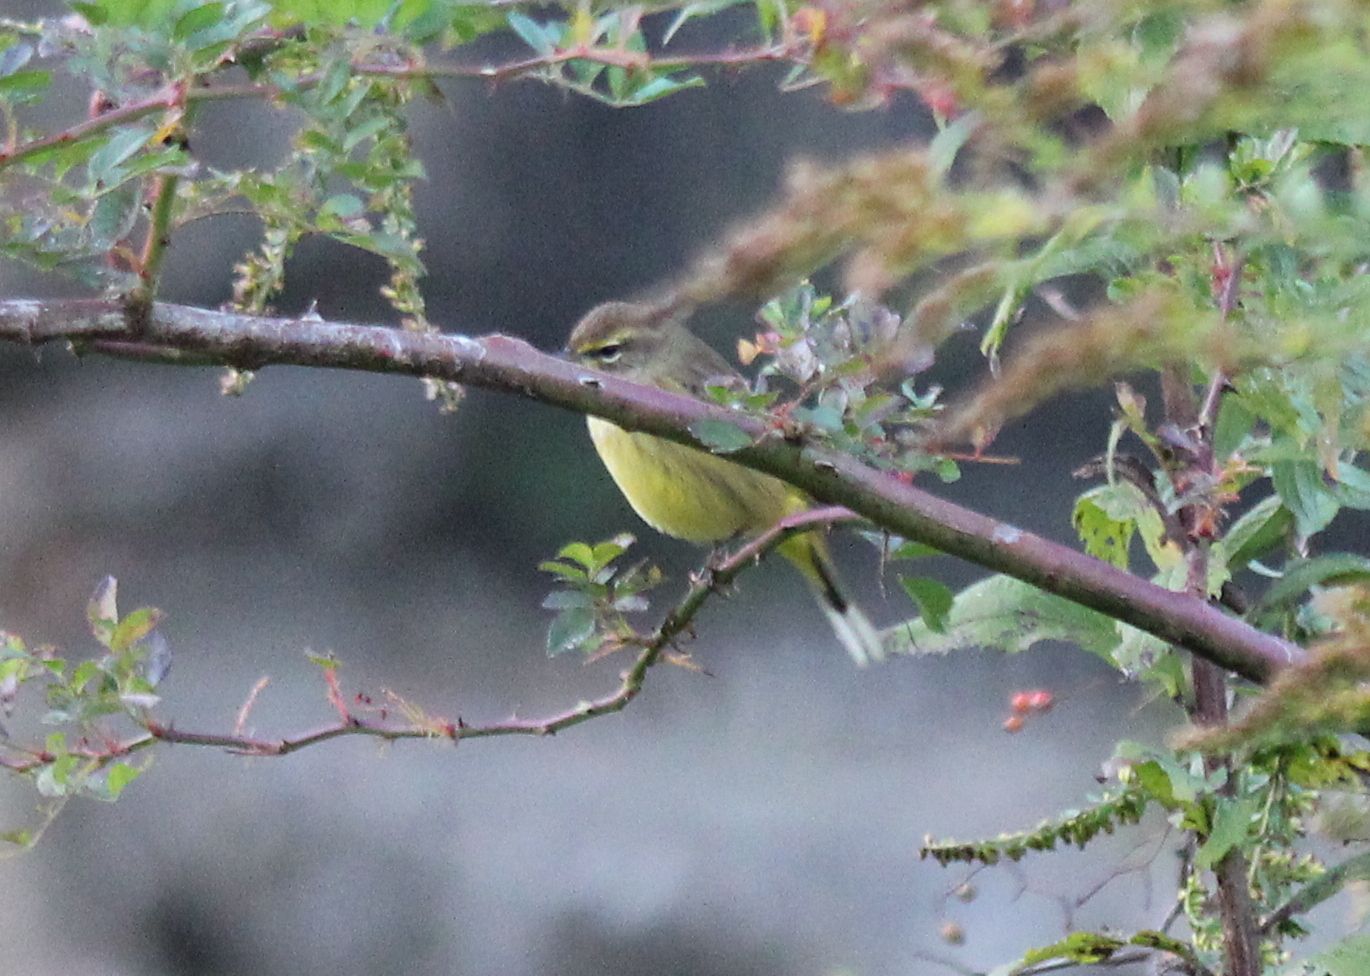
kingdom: Animalia
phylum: Chordata
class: Aves
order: Passeriformes
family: Parulidae
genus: Setophaga
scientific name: Setophaga palmarum
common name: Palm warbler
